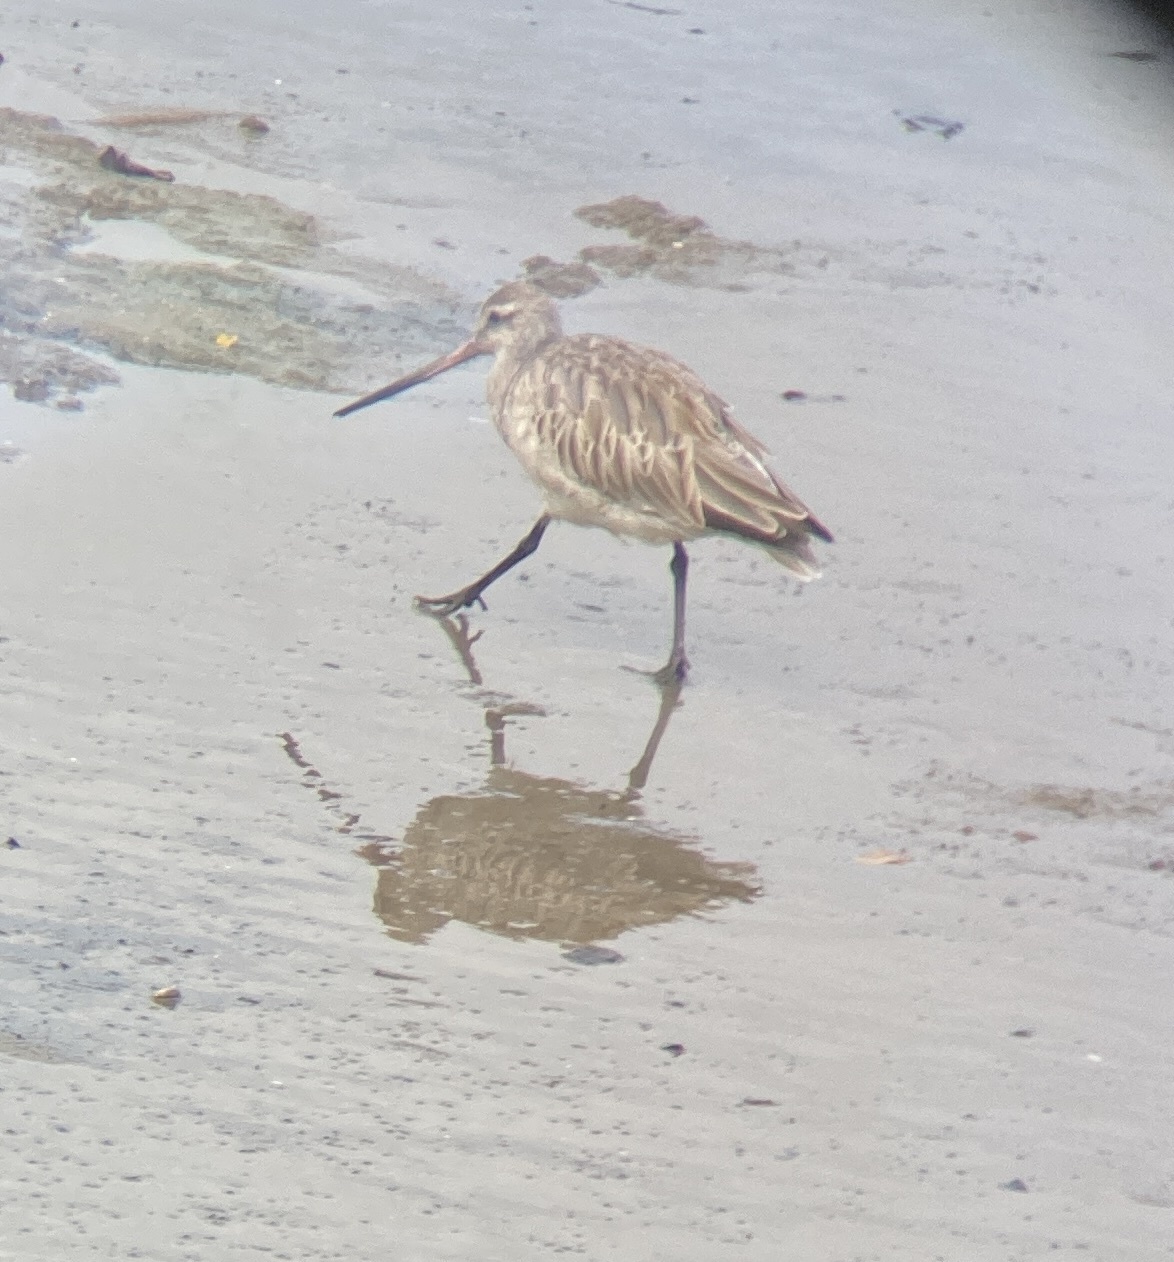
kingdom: Animalia
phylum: Chordata
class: Aves
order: Charadriiformes
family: Scolopacidae
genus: Limosa
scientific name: Limosa lapponica
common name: Bar-tailed godwit
